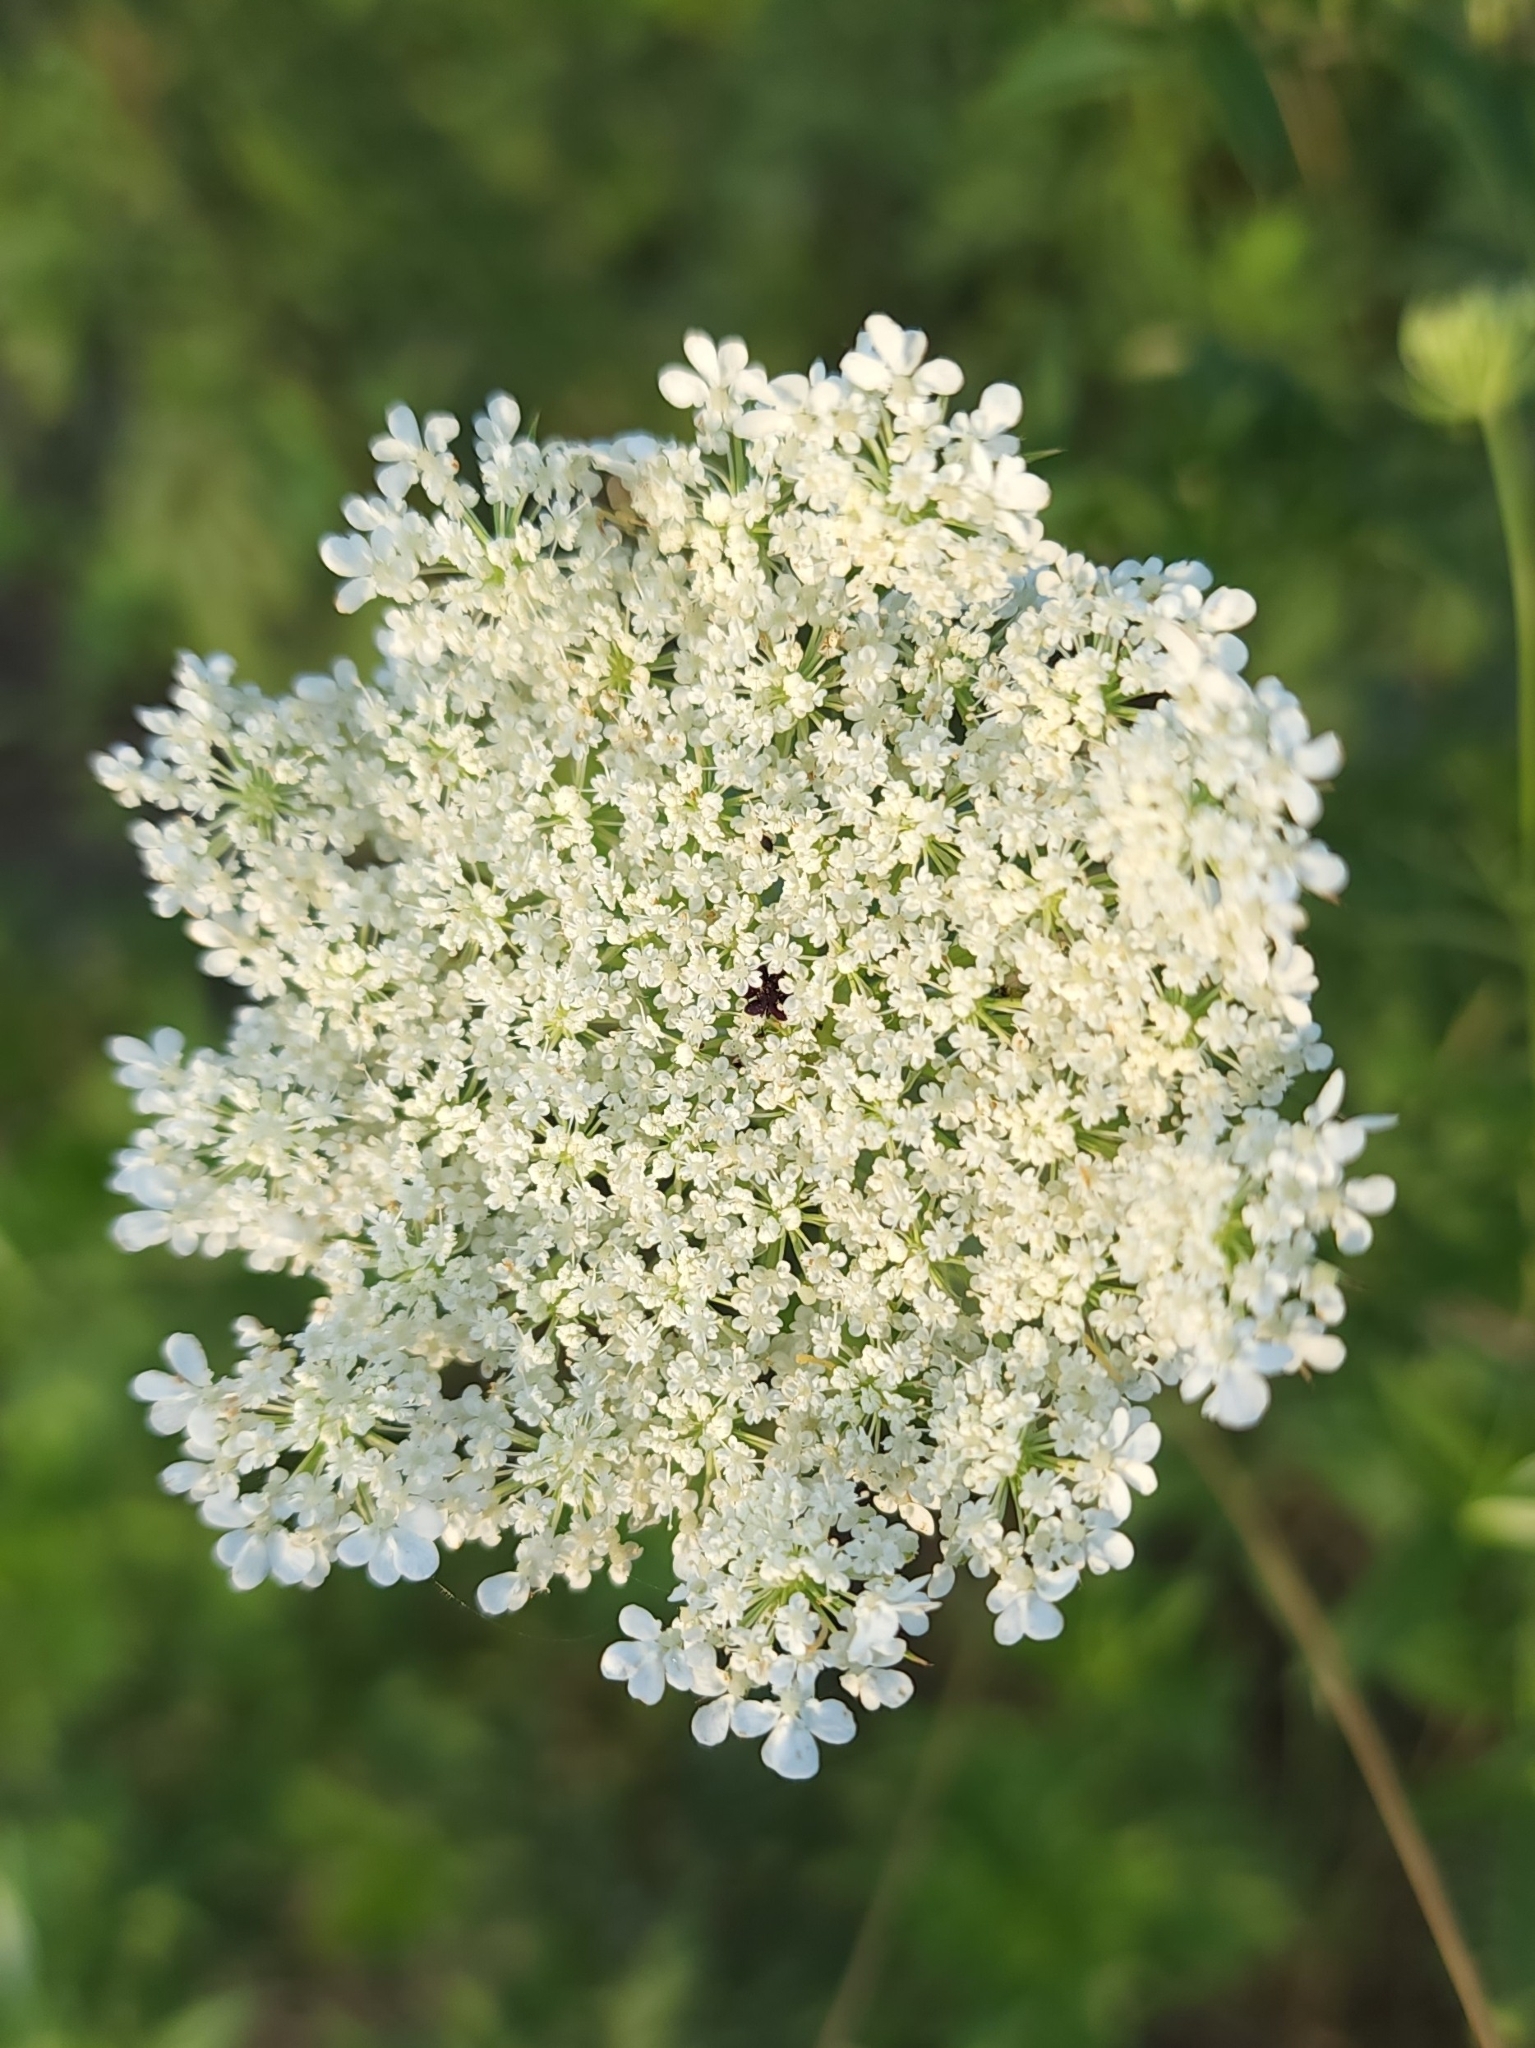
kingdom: Plantae
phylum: Tracheophyta
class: Magnoliopsida
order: Apiales
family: Apiaceae
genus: Daucus
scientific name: Daucus carota
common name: Wild carrot
